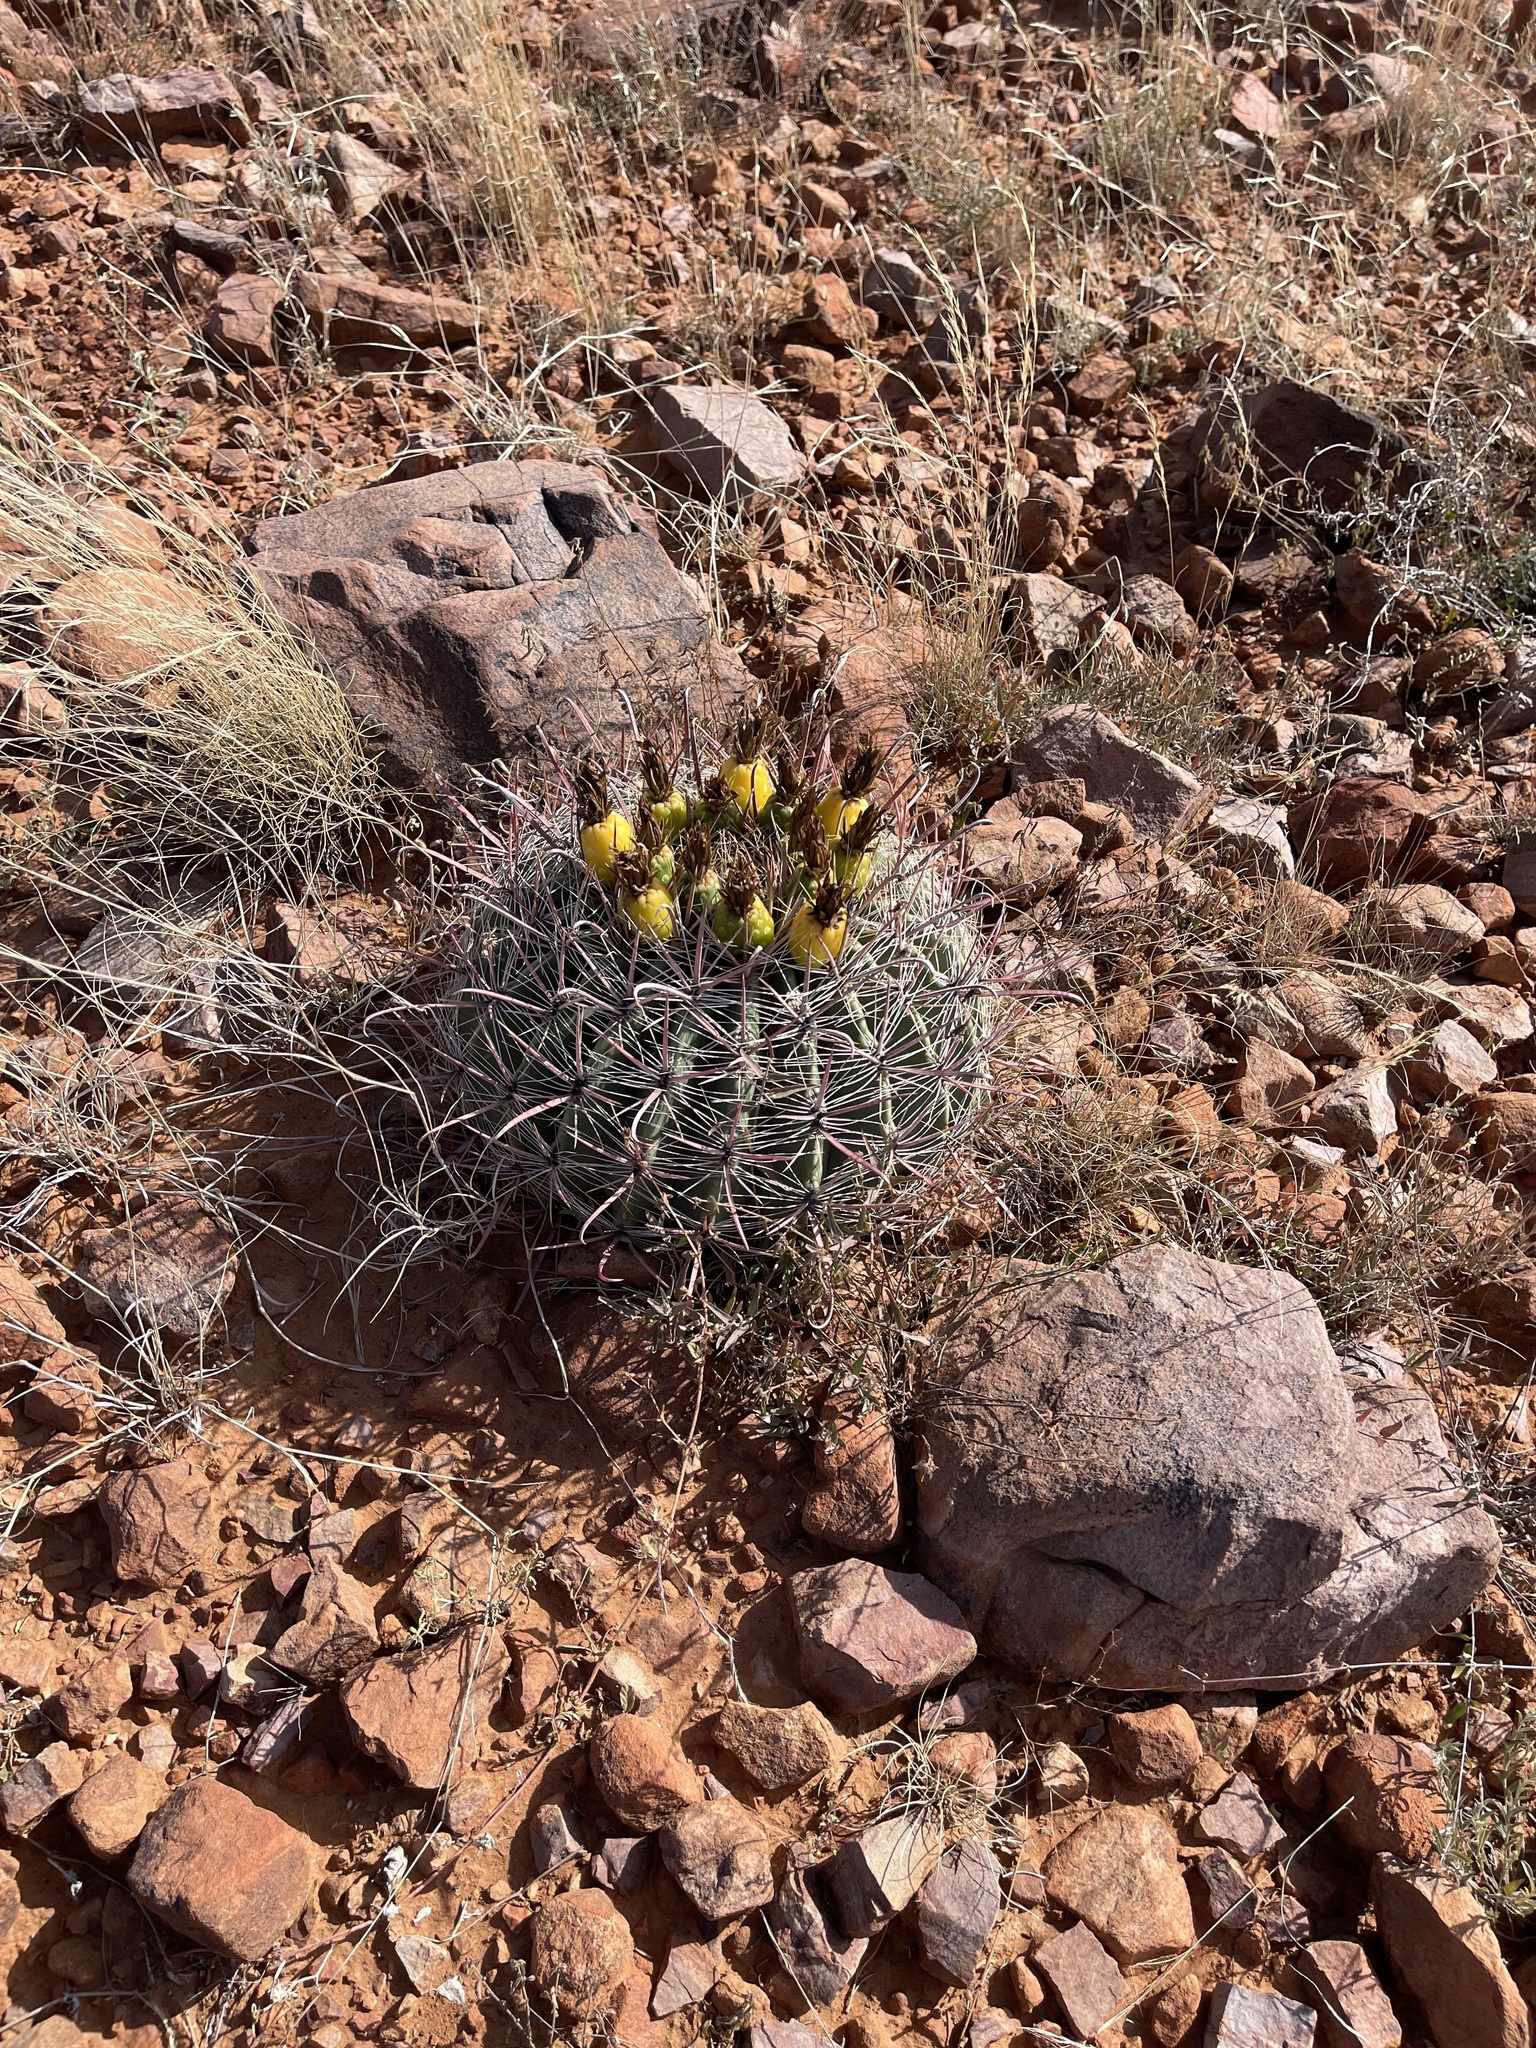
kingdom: Plantae
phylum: Tracheophyta
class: Magnoliopsida
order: Caryophyllales
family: Cactaceae
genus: Ferocactus
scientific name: Ferocactus wislizeni
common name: Candy barrel cactus
